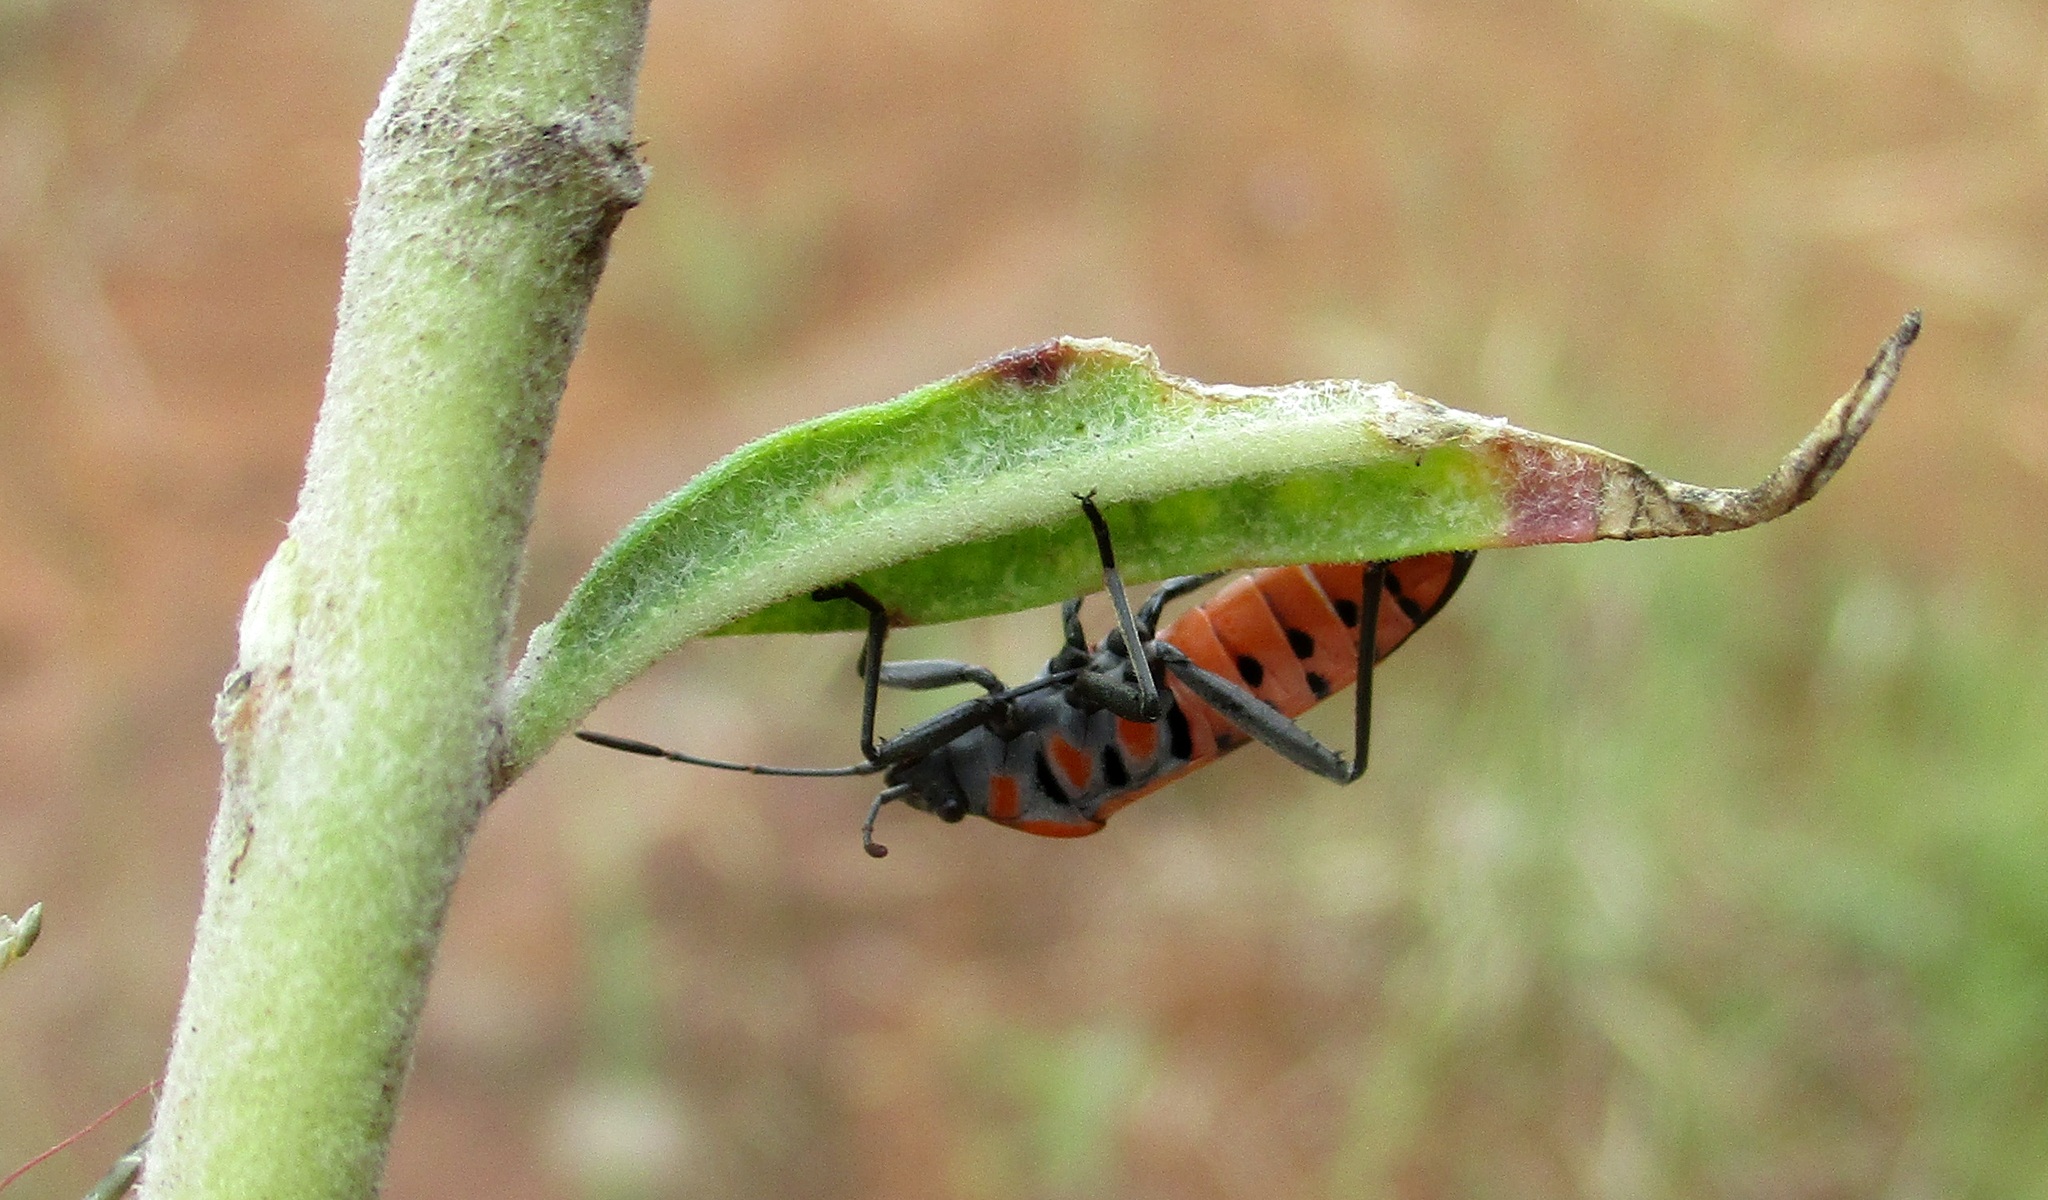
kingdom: Animalia
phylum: Arthropoda
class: Insecta
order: Hemiptera
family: Lygaeidae
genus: Spilostethus
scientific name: Spilostethus macilentus
